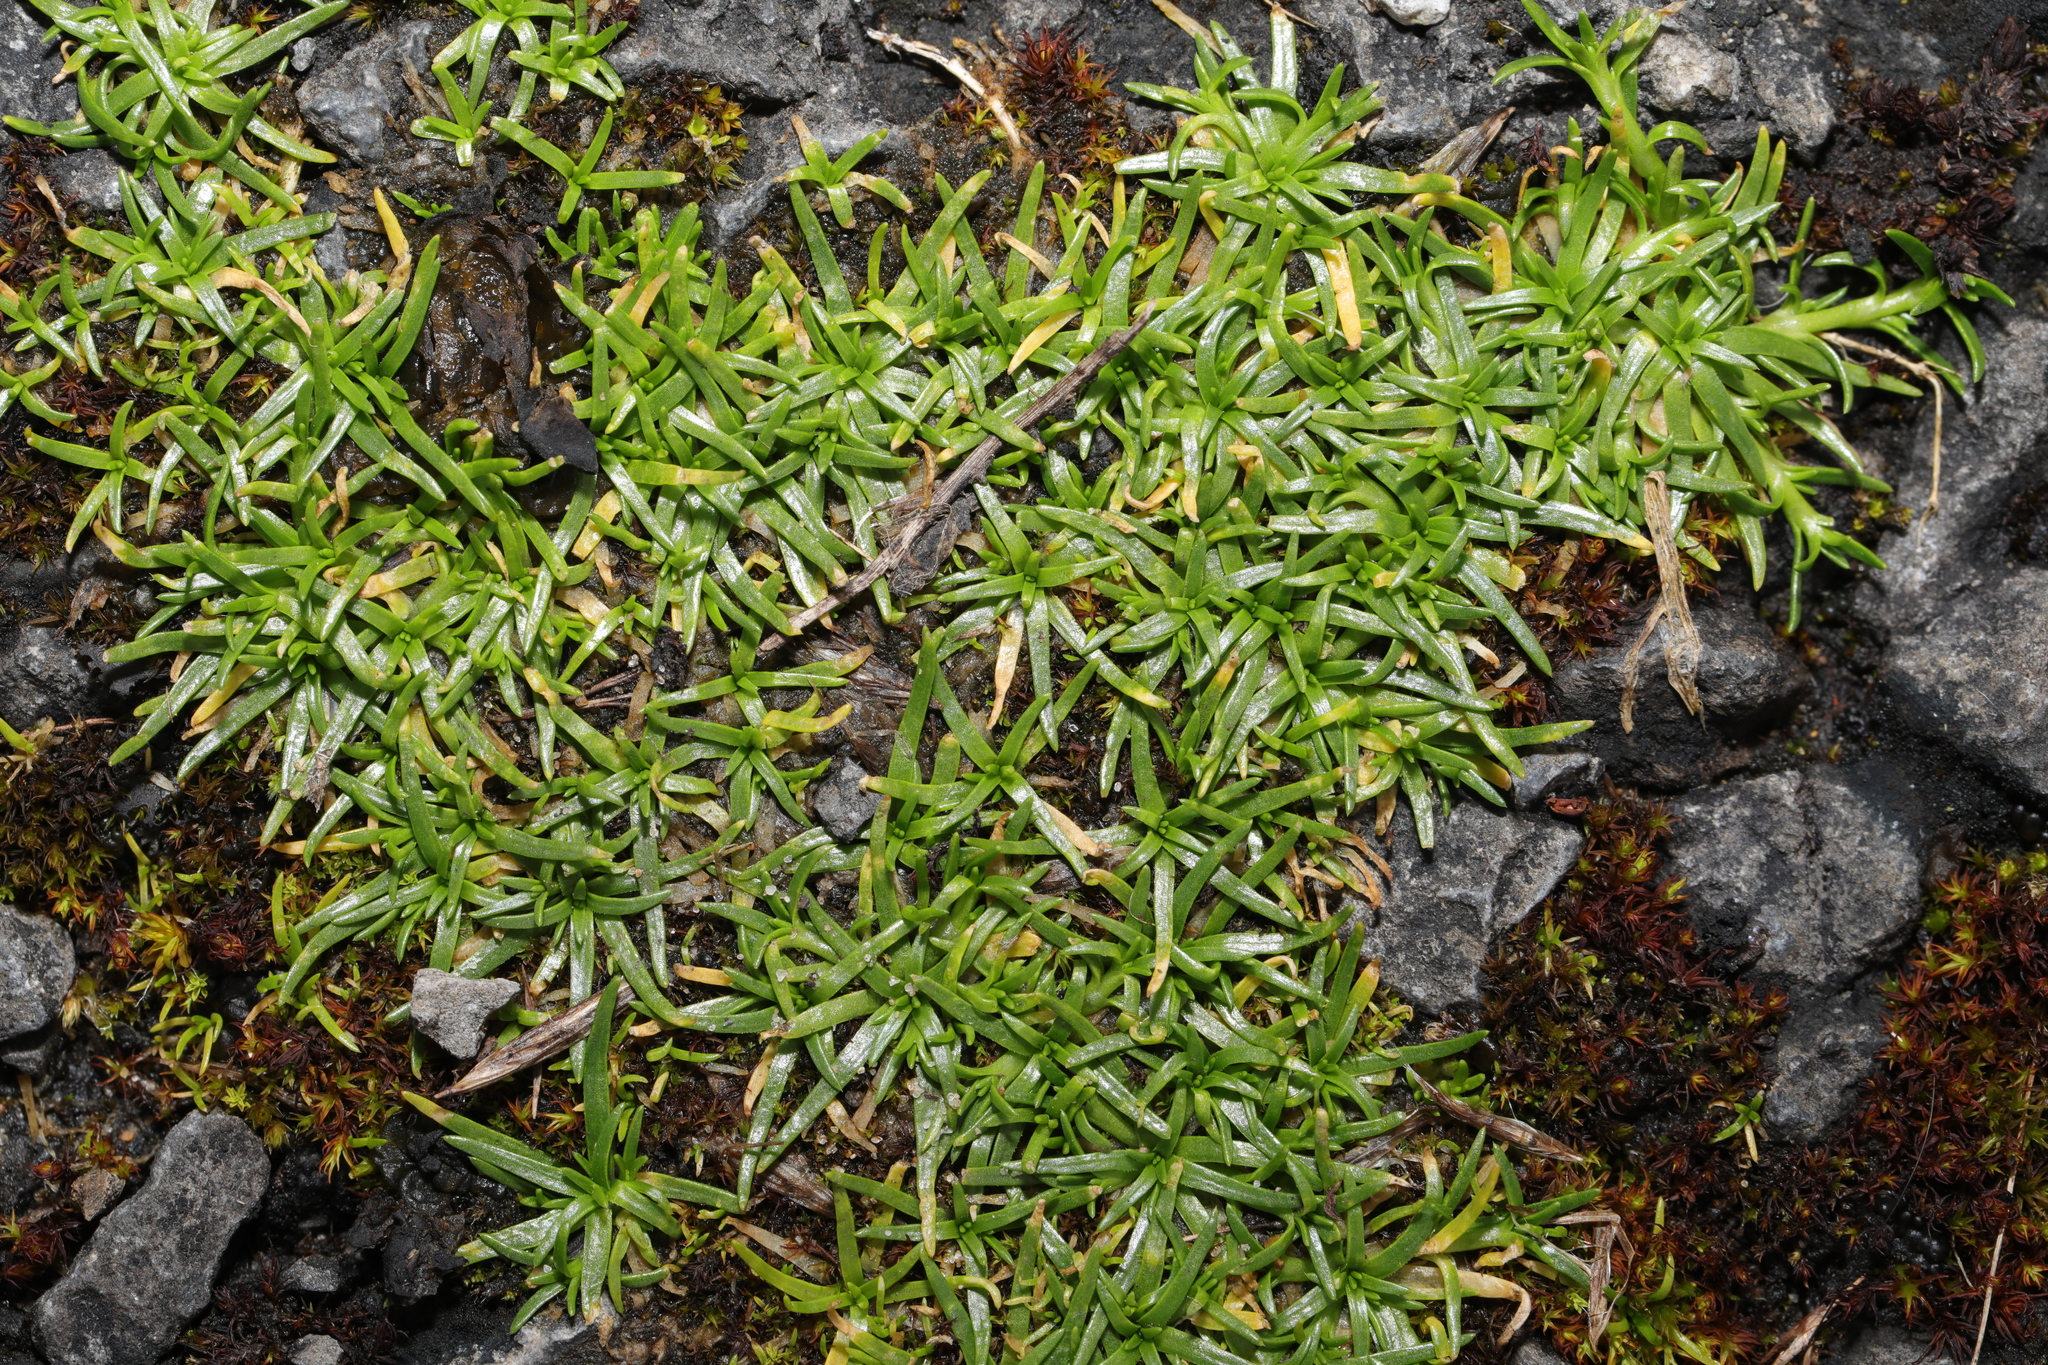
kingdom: Plantae
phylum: Tracheophyta
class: Magnoliopsida
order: Caryophyllales
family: Caryophyllaceae
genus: Sagina
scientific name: Sagina procumbens
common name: Procumbent pearlwort
